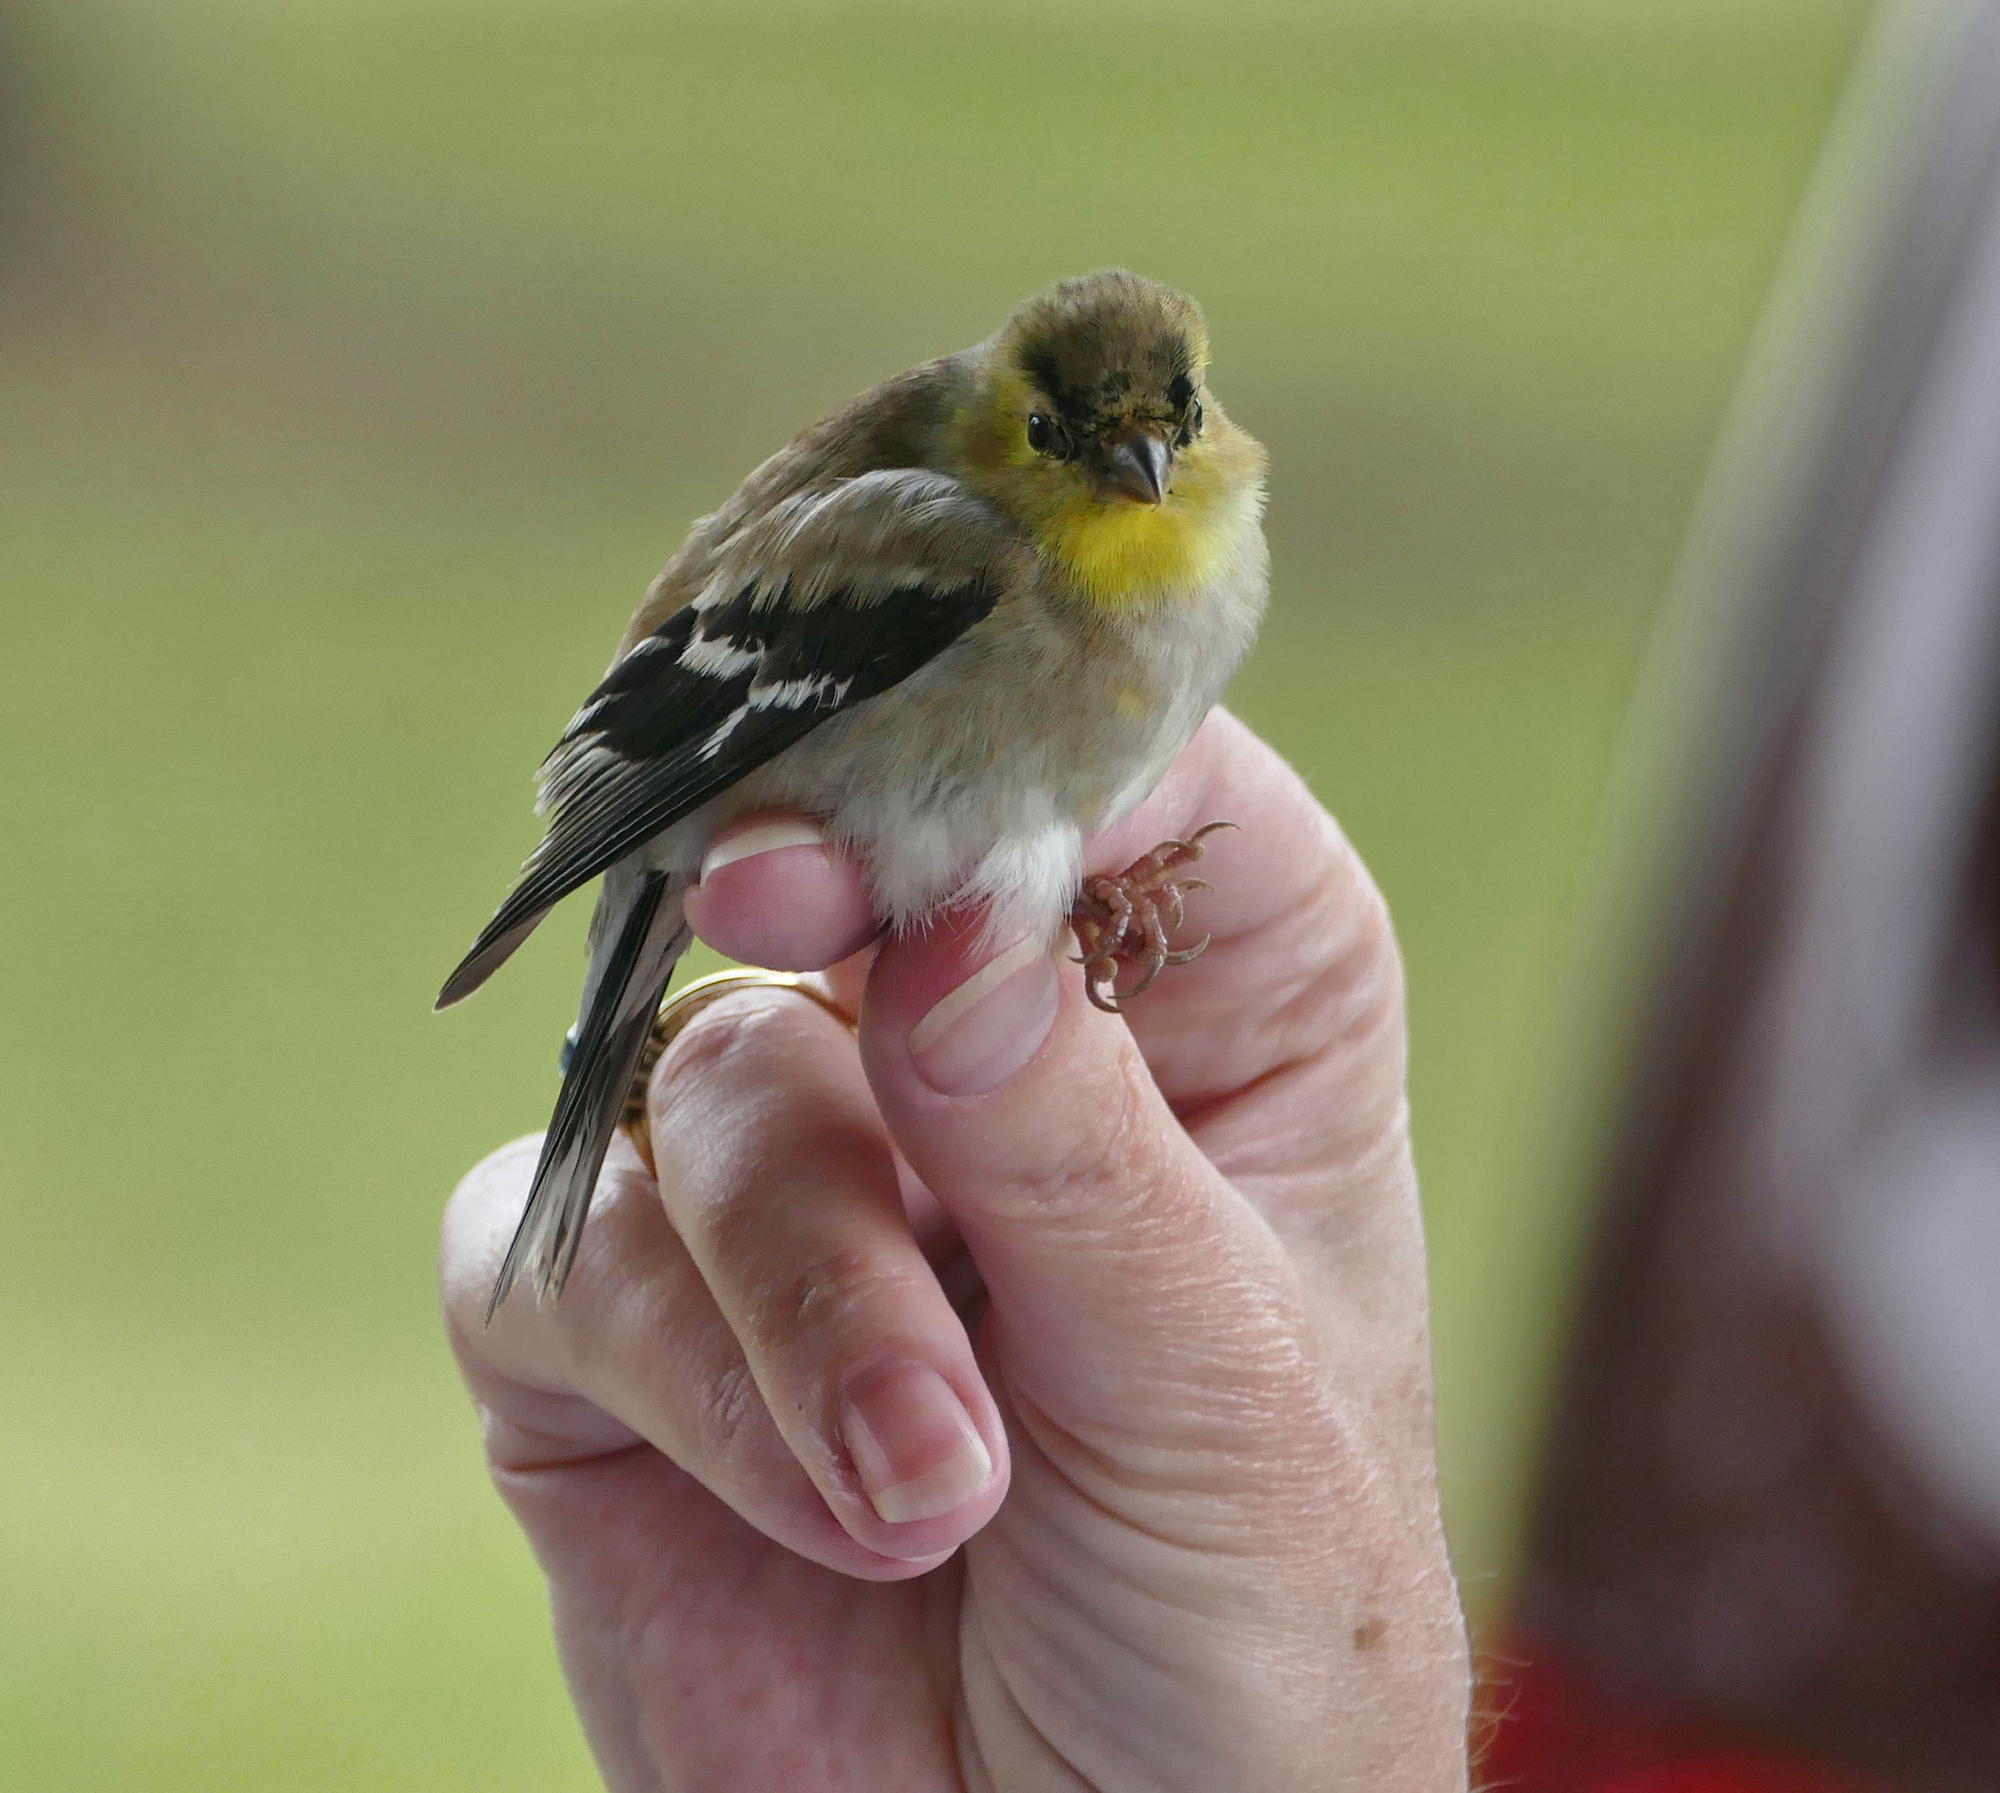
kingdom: Animalia
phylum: Chordata
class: Aves
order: Passeriformes
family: Fringillidae
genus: Spinus
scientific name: Spinus tristis
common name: American goldfinch
